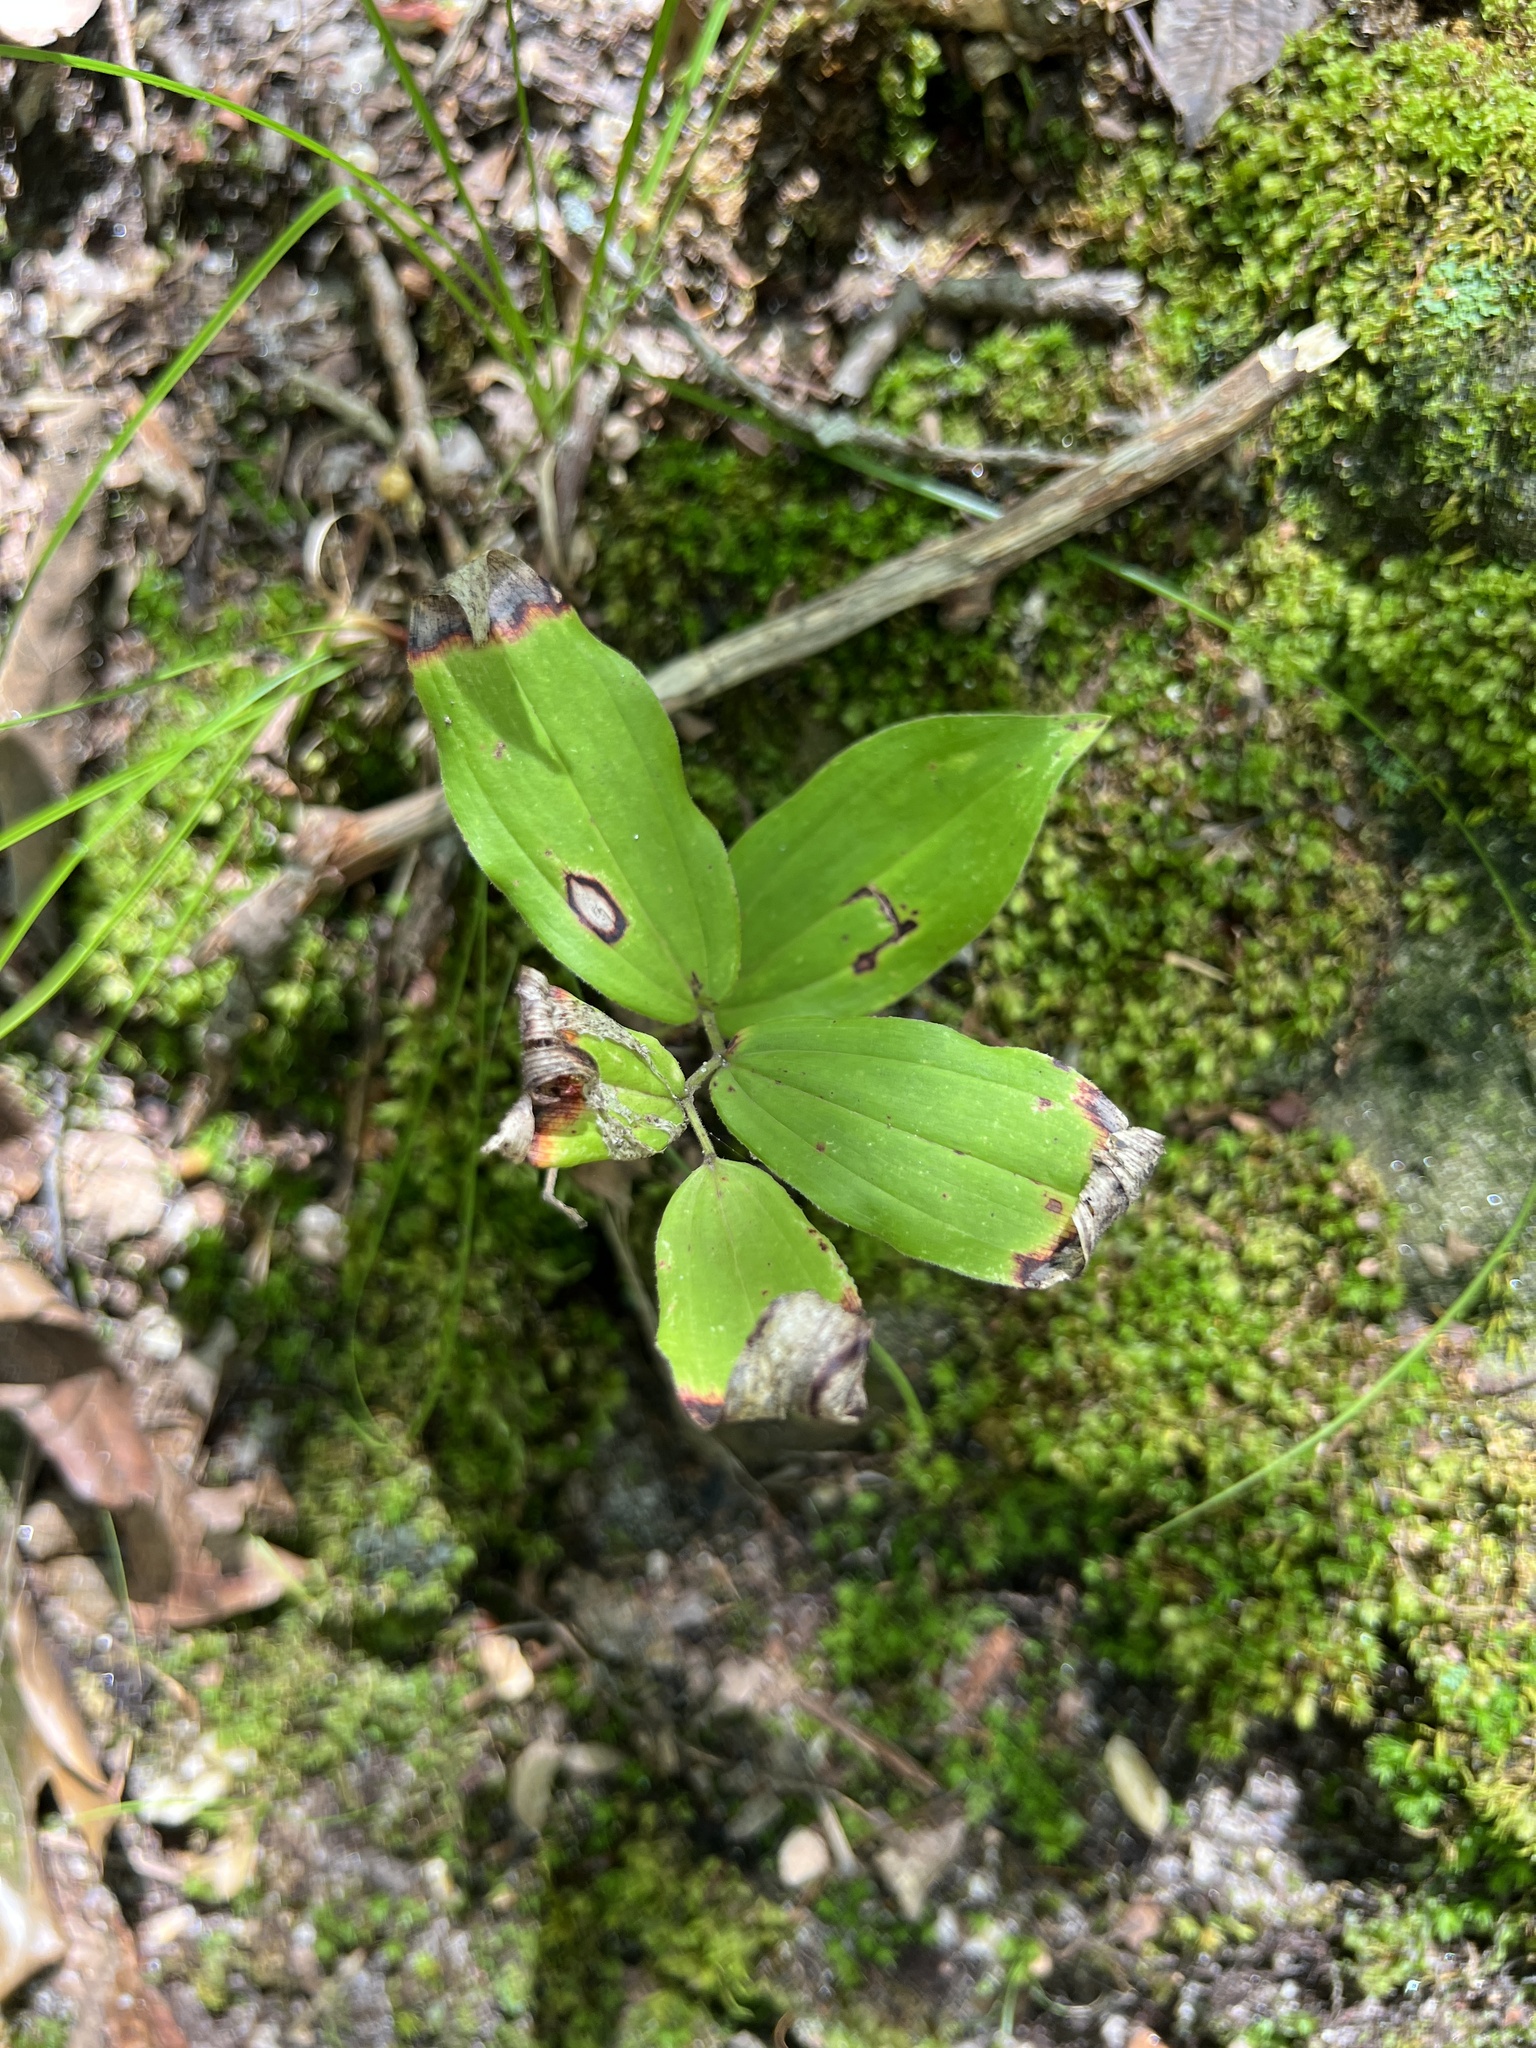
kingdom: Plantae
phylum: Tracheophyta
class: Liliopsida
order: Asparagales
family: Asparagaceae
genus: Maianthemum
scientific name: Maianthemum racemosum
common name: False spikenard
